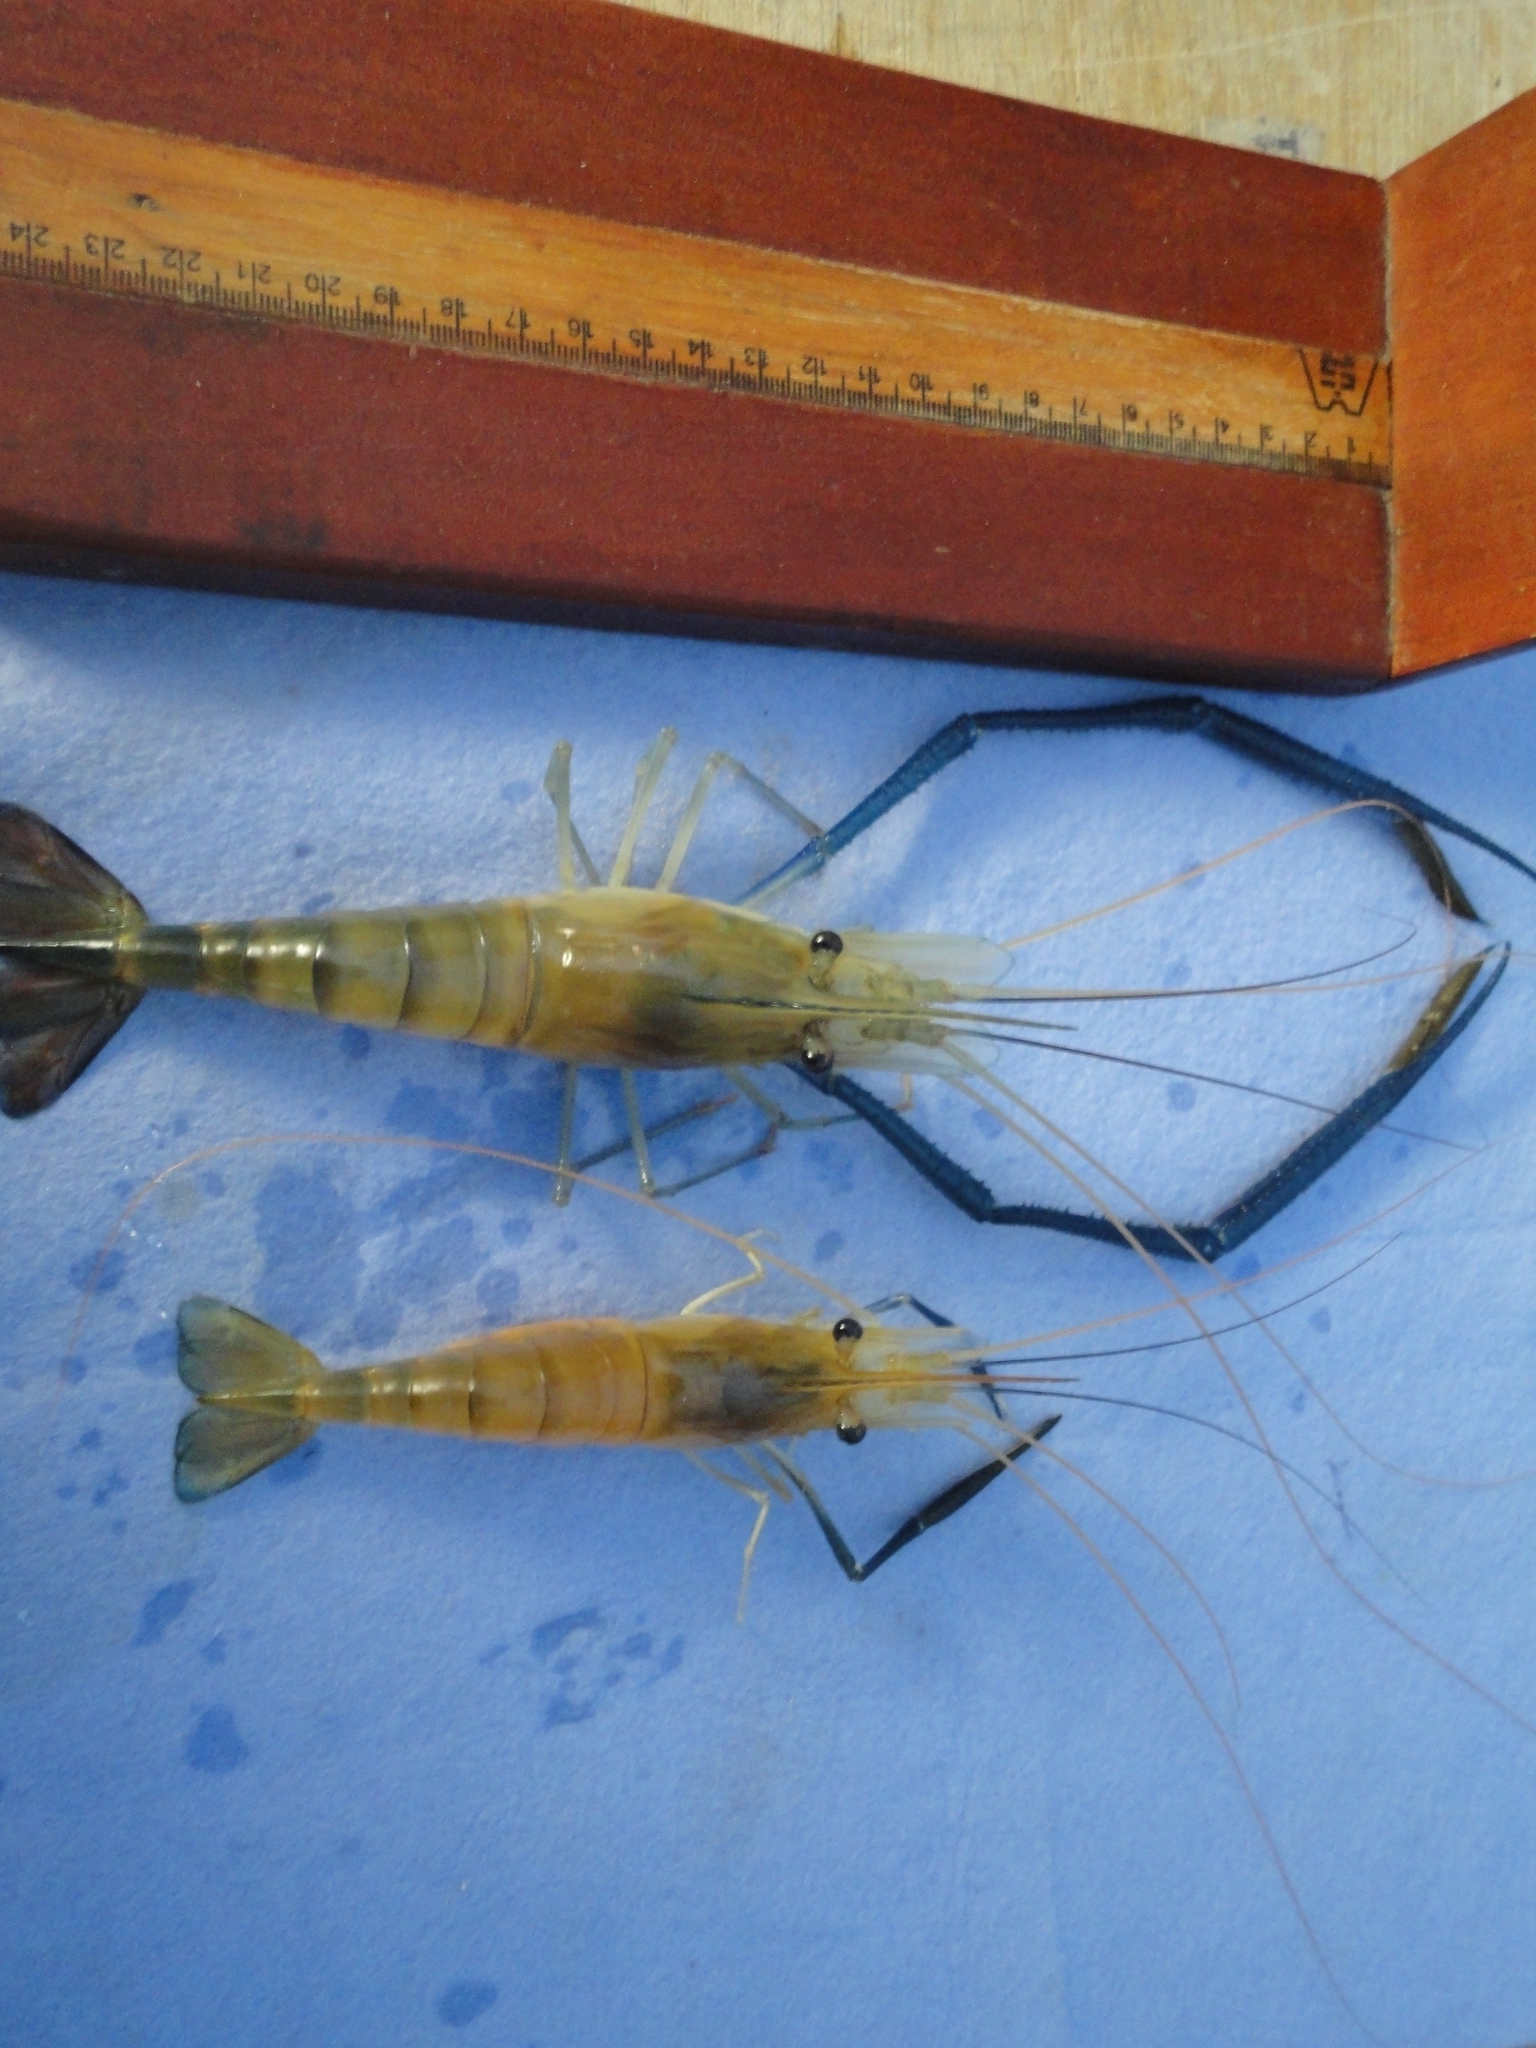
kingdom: Animalia
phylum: Arthropoda
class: Malacostraca
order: Decapoda
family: Palaemonidae
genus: Macrobrachium
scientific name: Macrobrachium rosenbergii
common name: Giant river prawn
